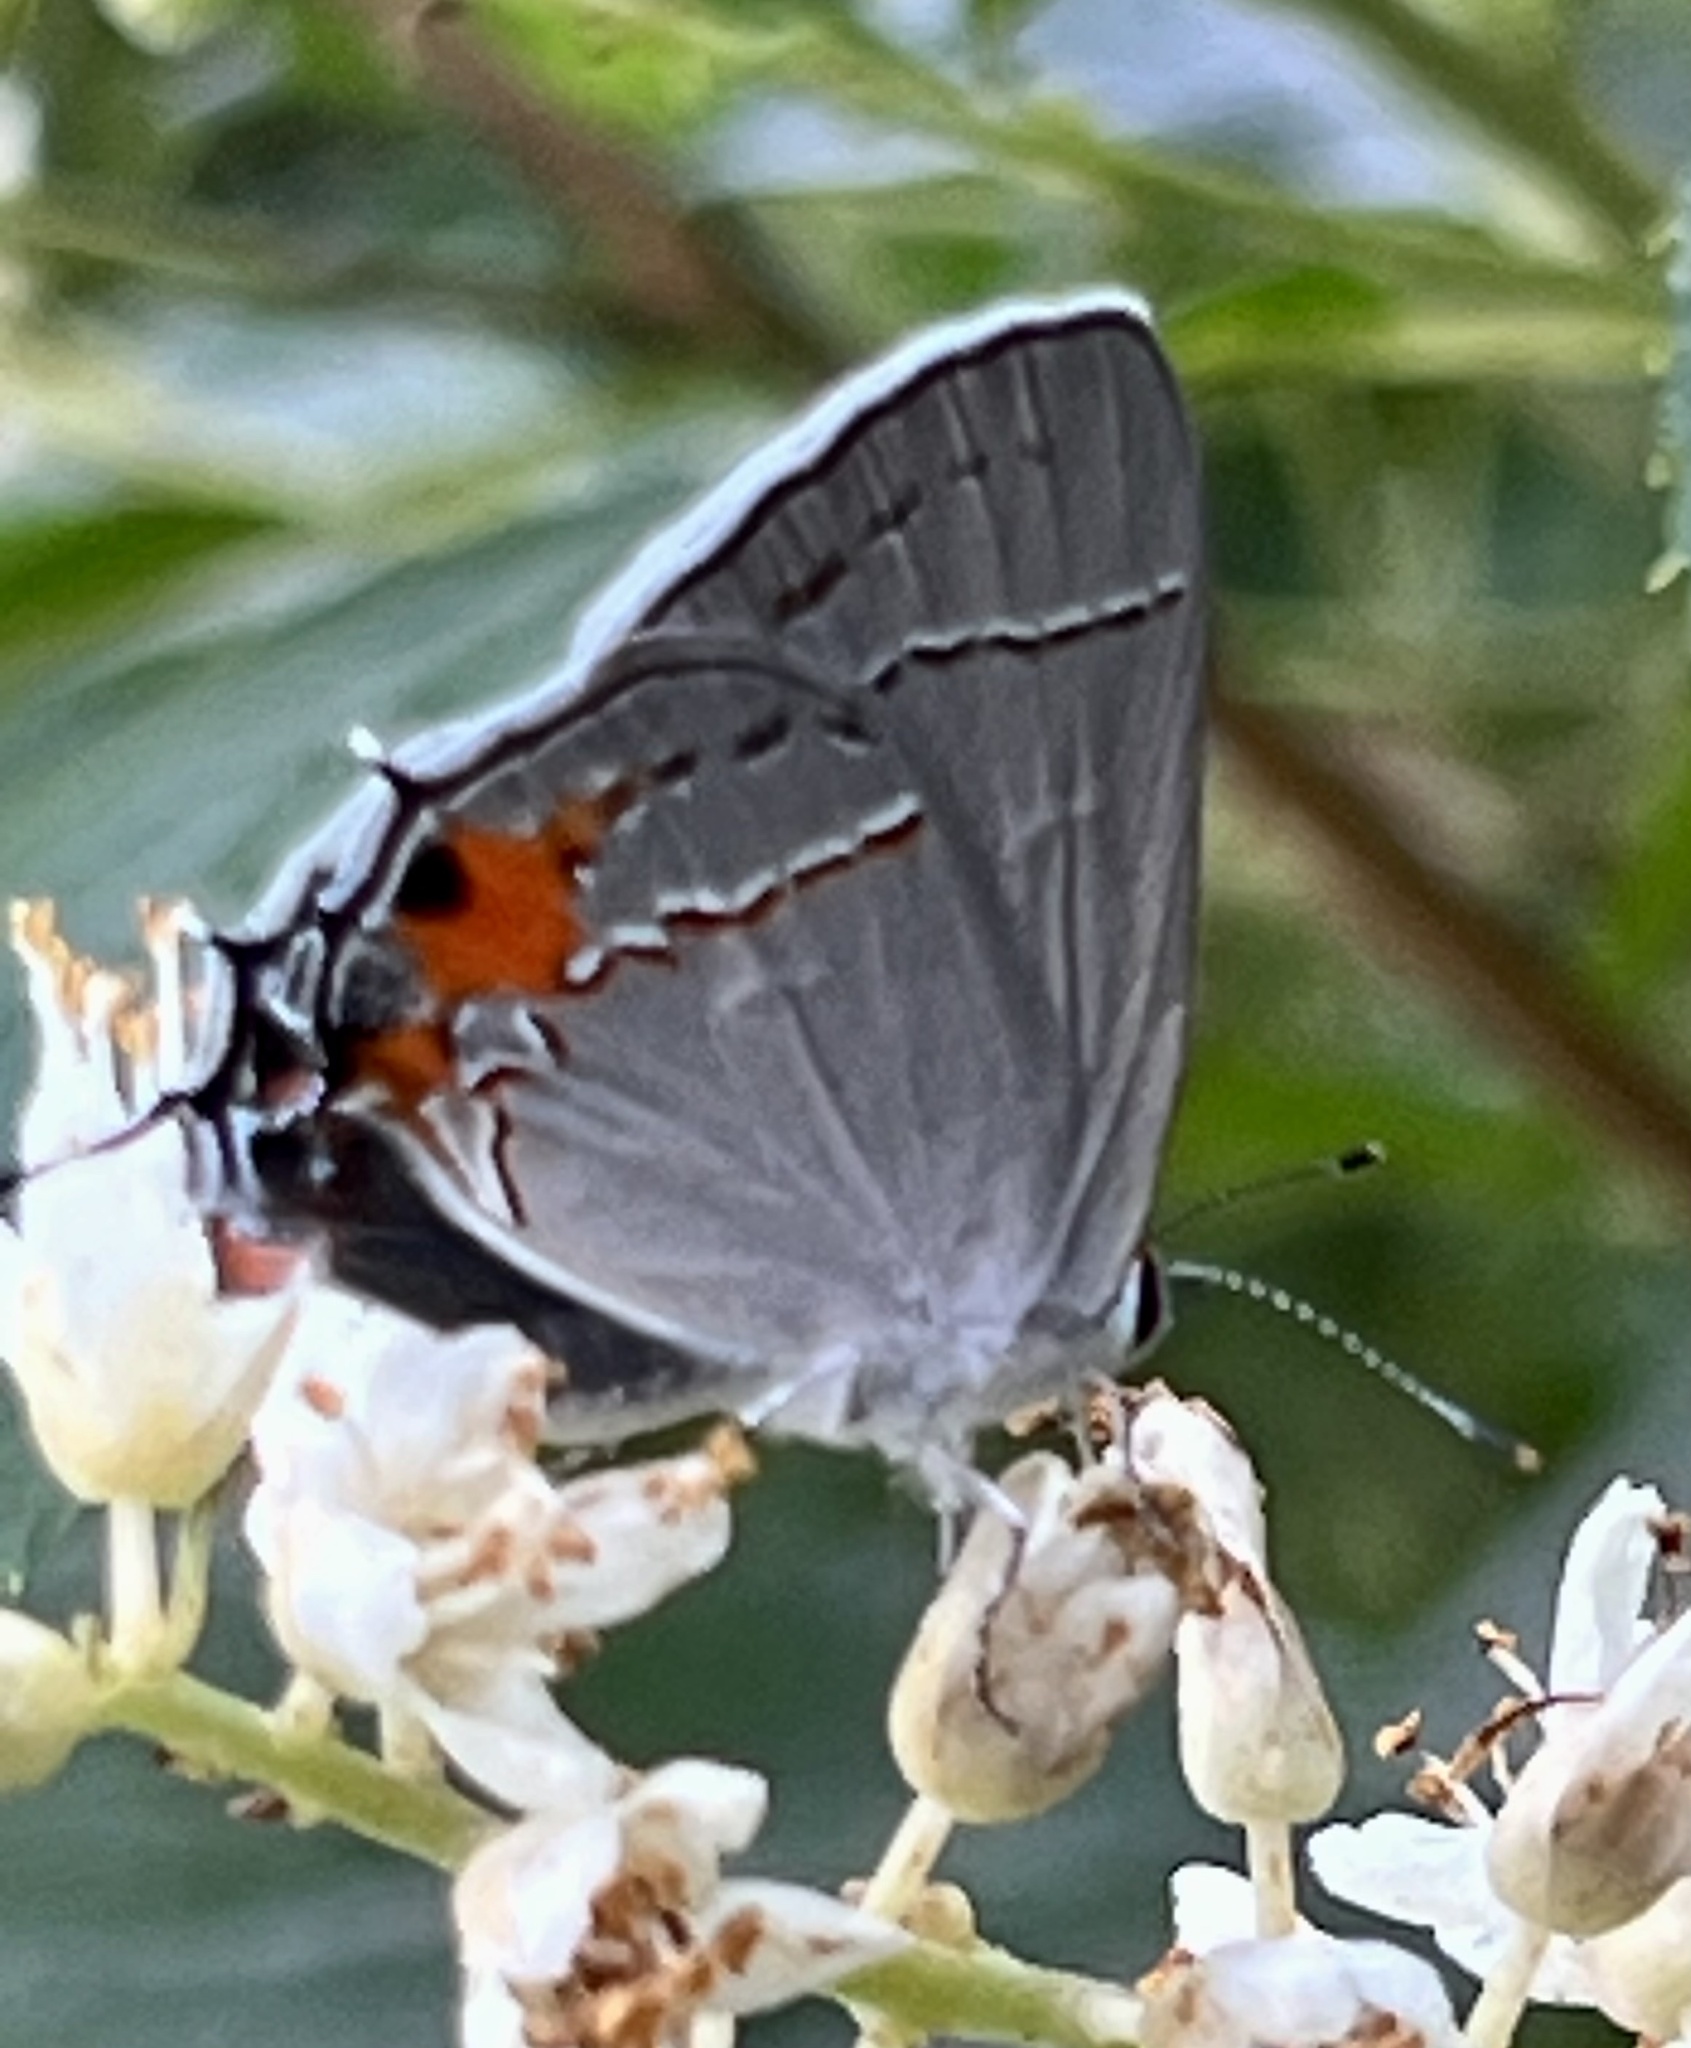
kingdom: Animalia
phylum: Arthropoda
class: Insecta
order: Lepidoptera
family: Lycaenidae
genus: Strymon
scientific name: Strymon melinus
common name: Gray hairstreak
